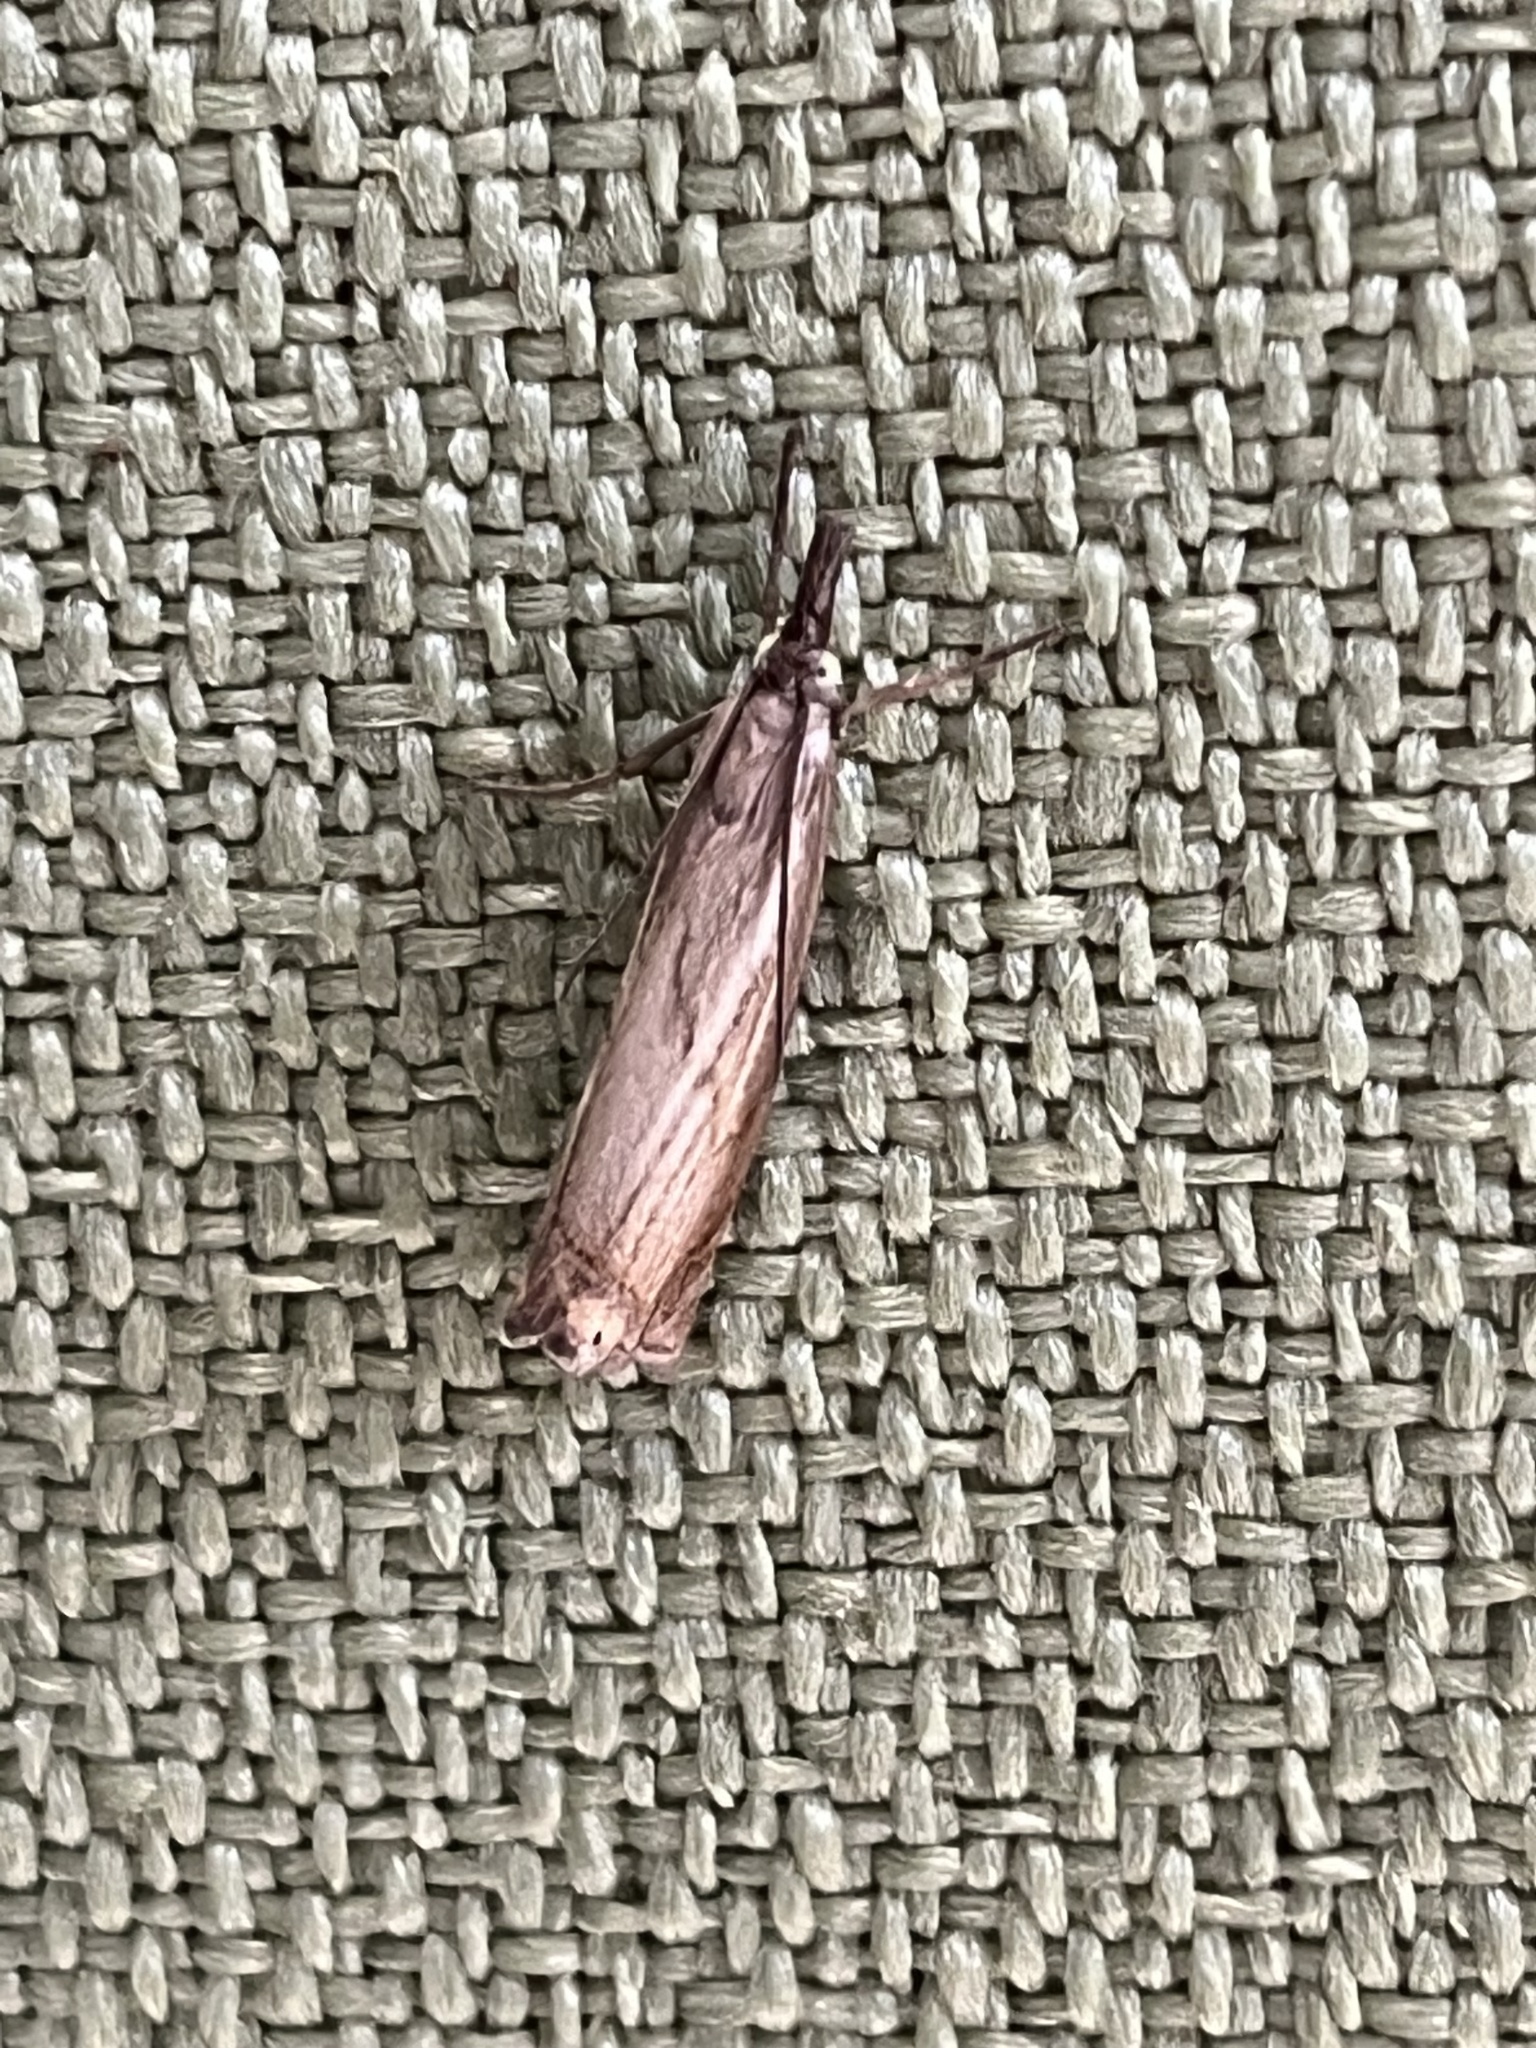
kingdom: Animalia
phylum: Arthropoda
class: Insecta
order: Lepidoptera
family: Crambidae
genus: Chrysoteuchia
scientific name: Chrysoteuchia culmella
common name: Garden grass-veneer
